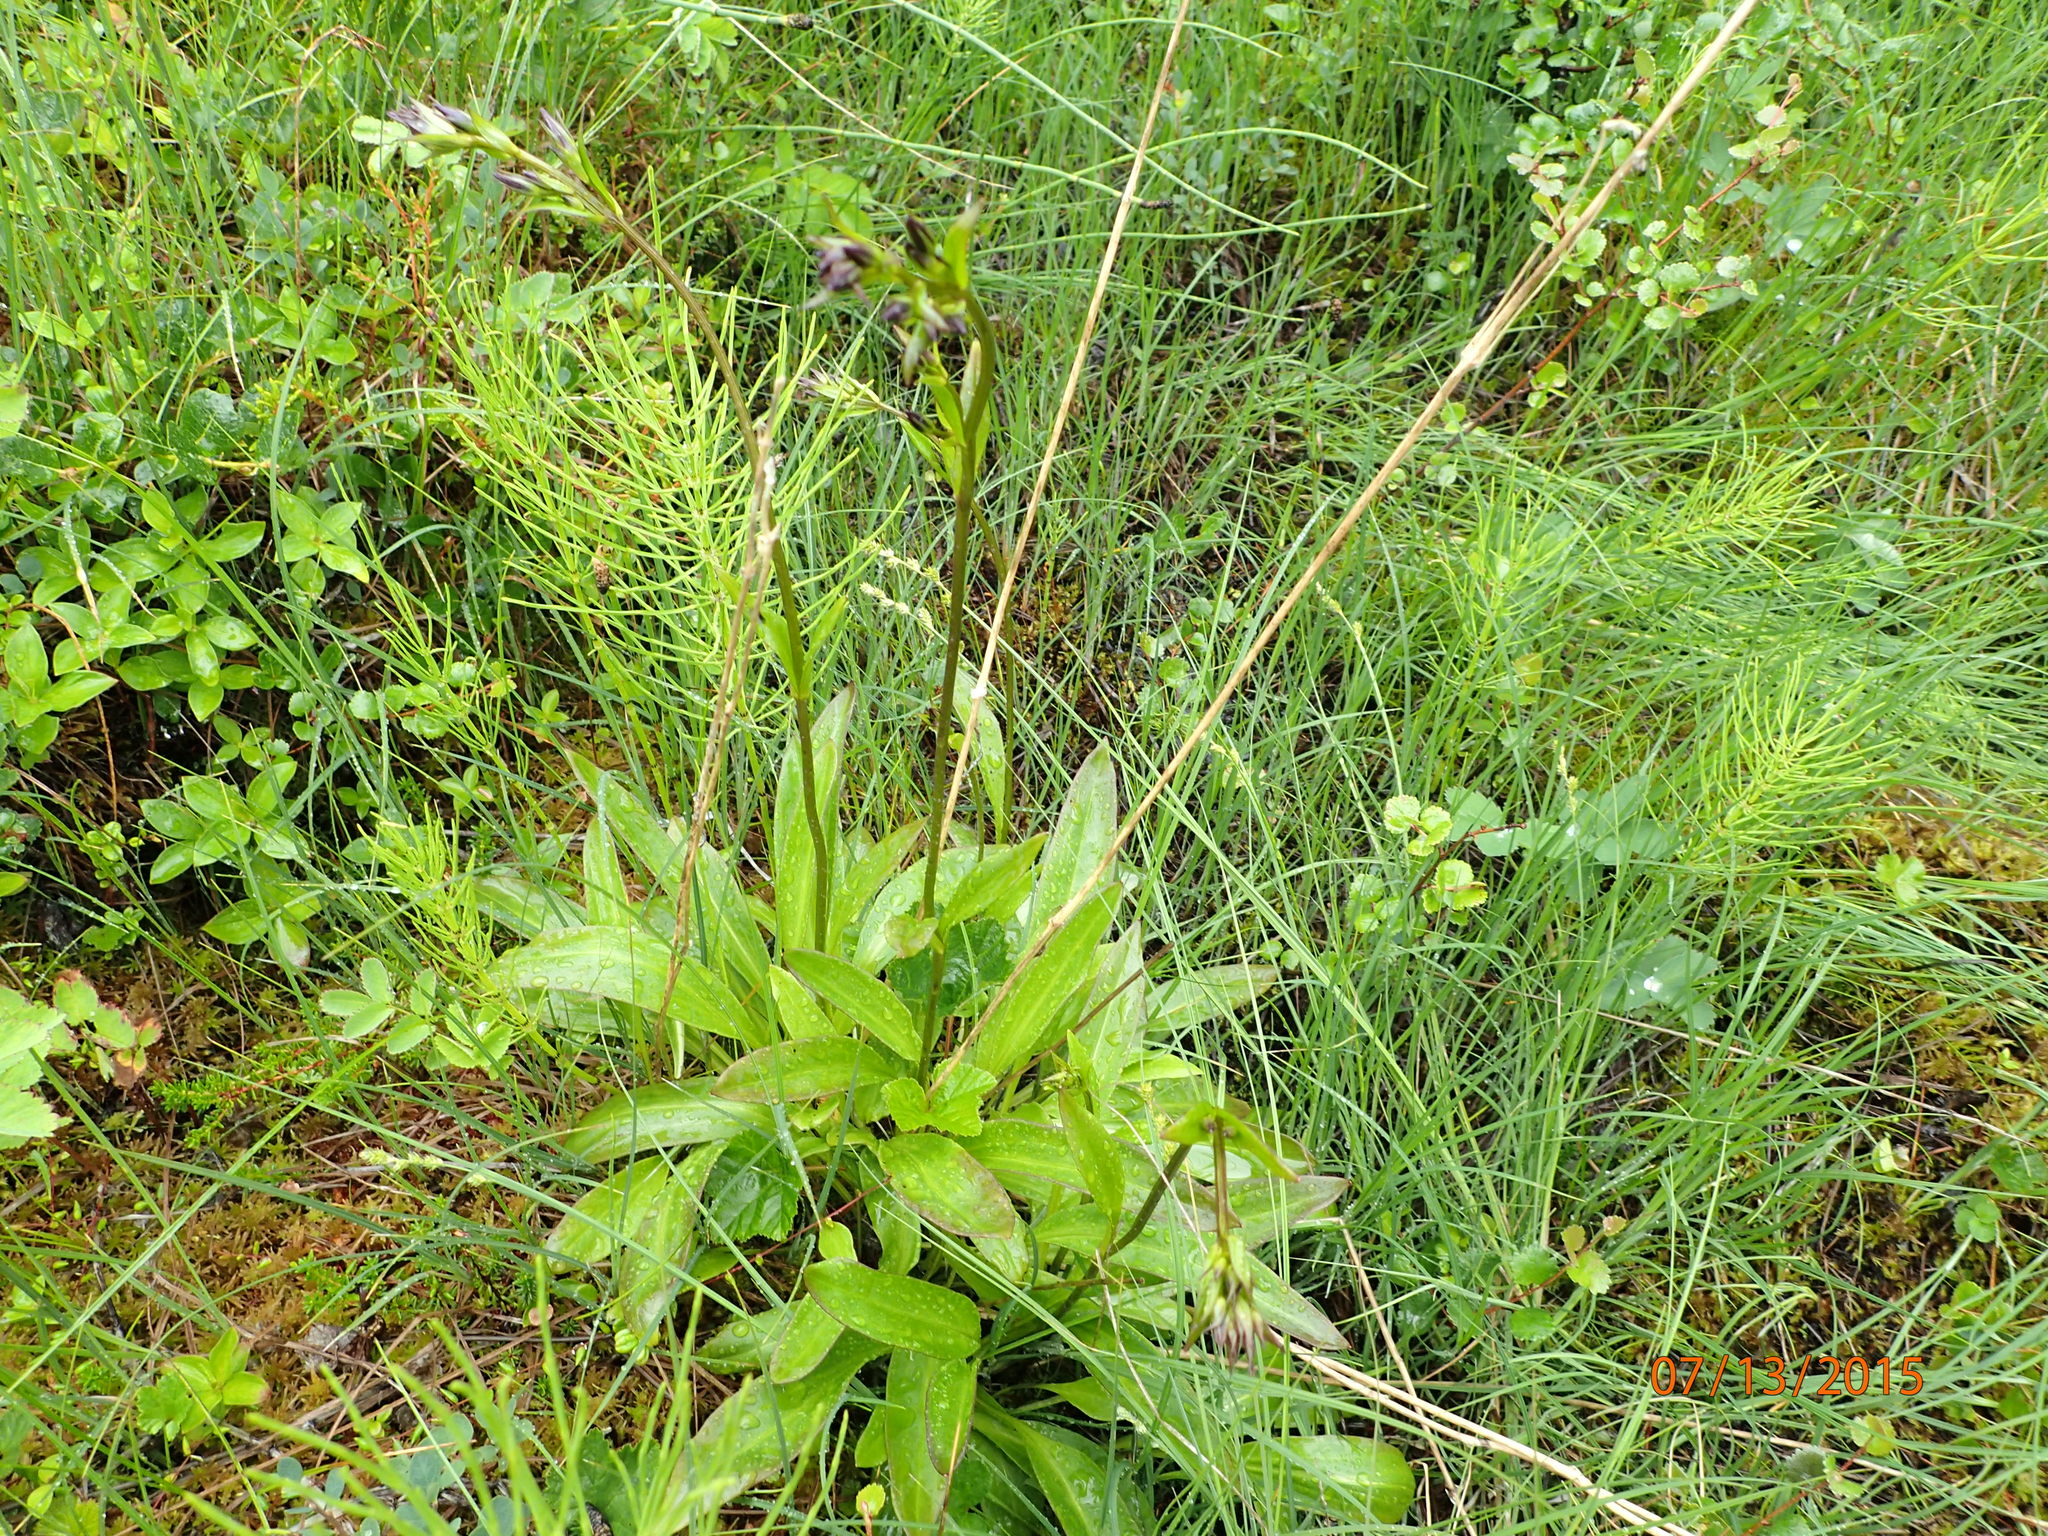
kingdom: Plantae
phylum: Tracheophyta
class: Magnoliopsida
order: Gentianales
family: Gentianaceae
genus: Swertia
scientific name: Swertia perennis
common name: Alpine bog swertia
